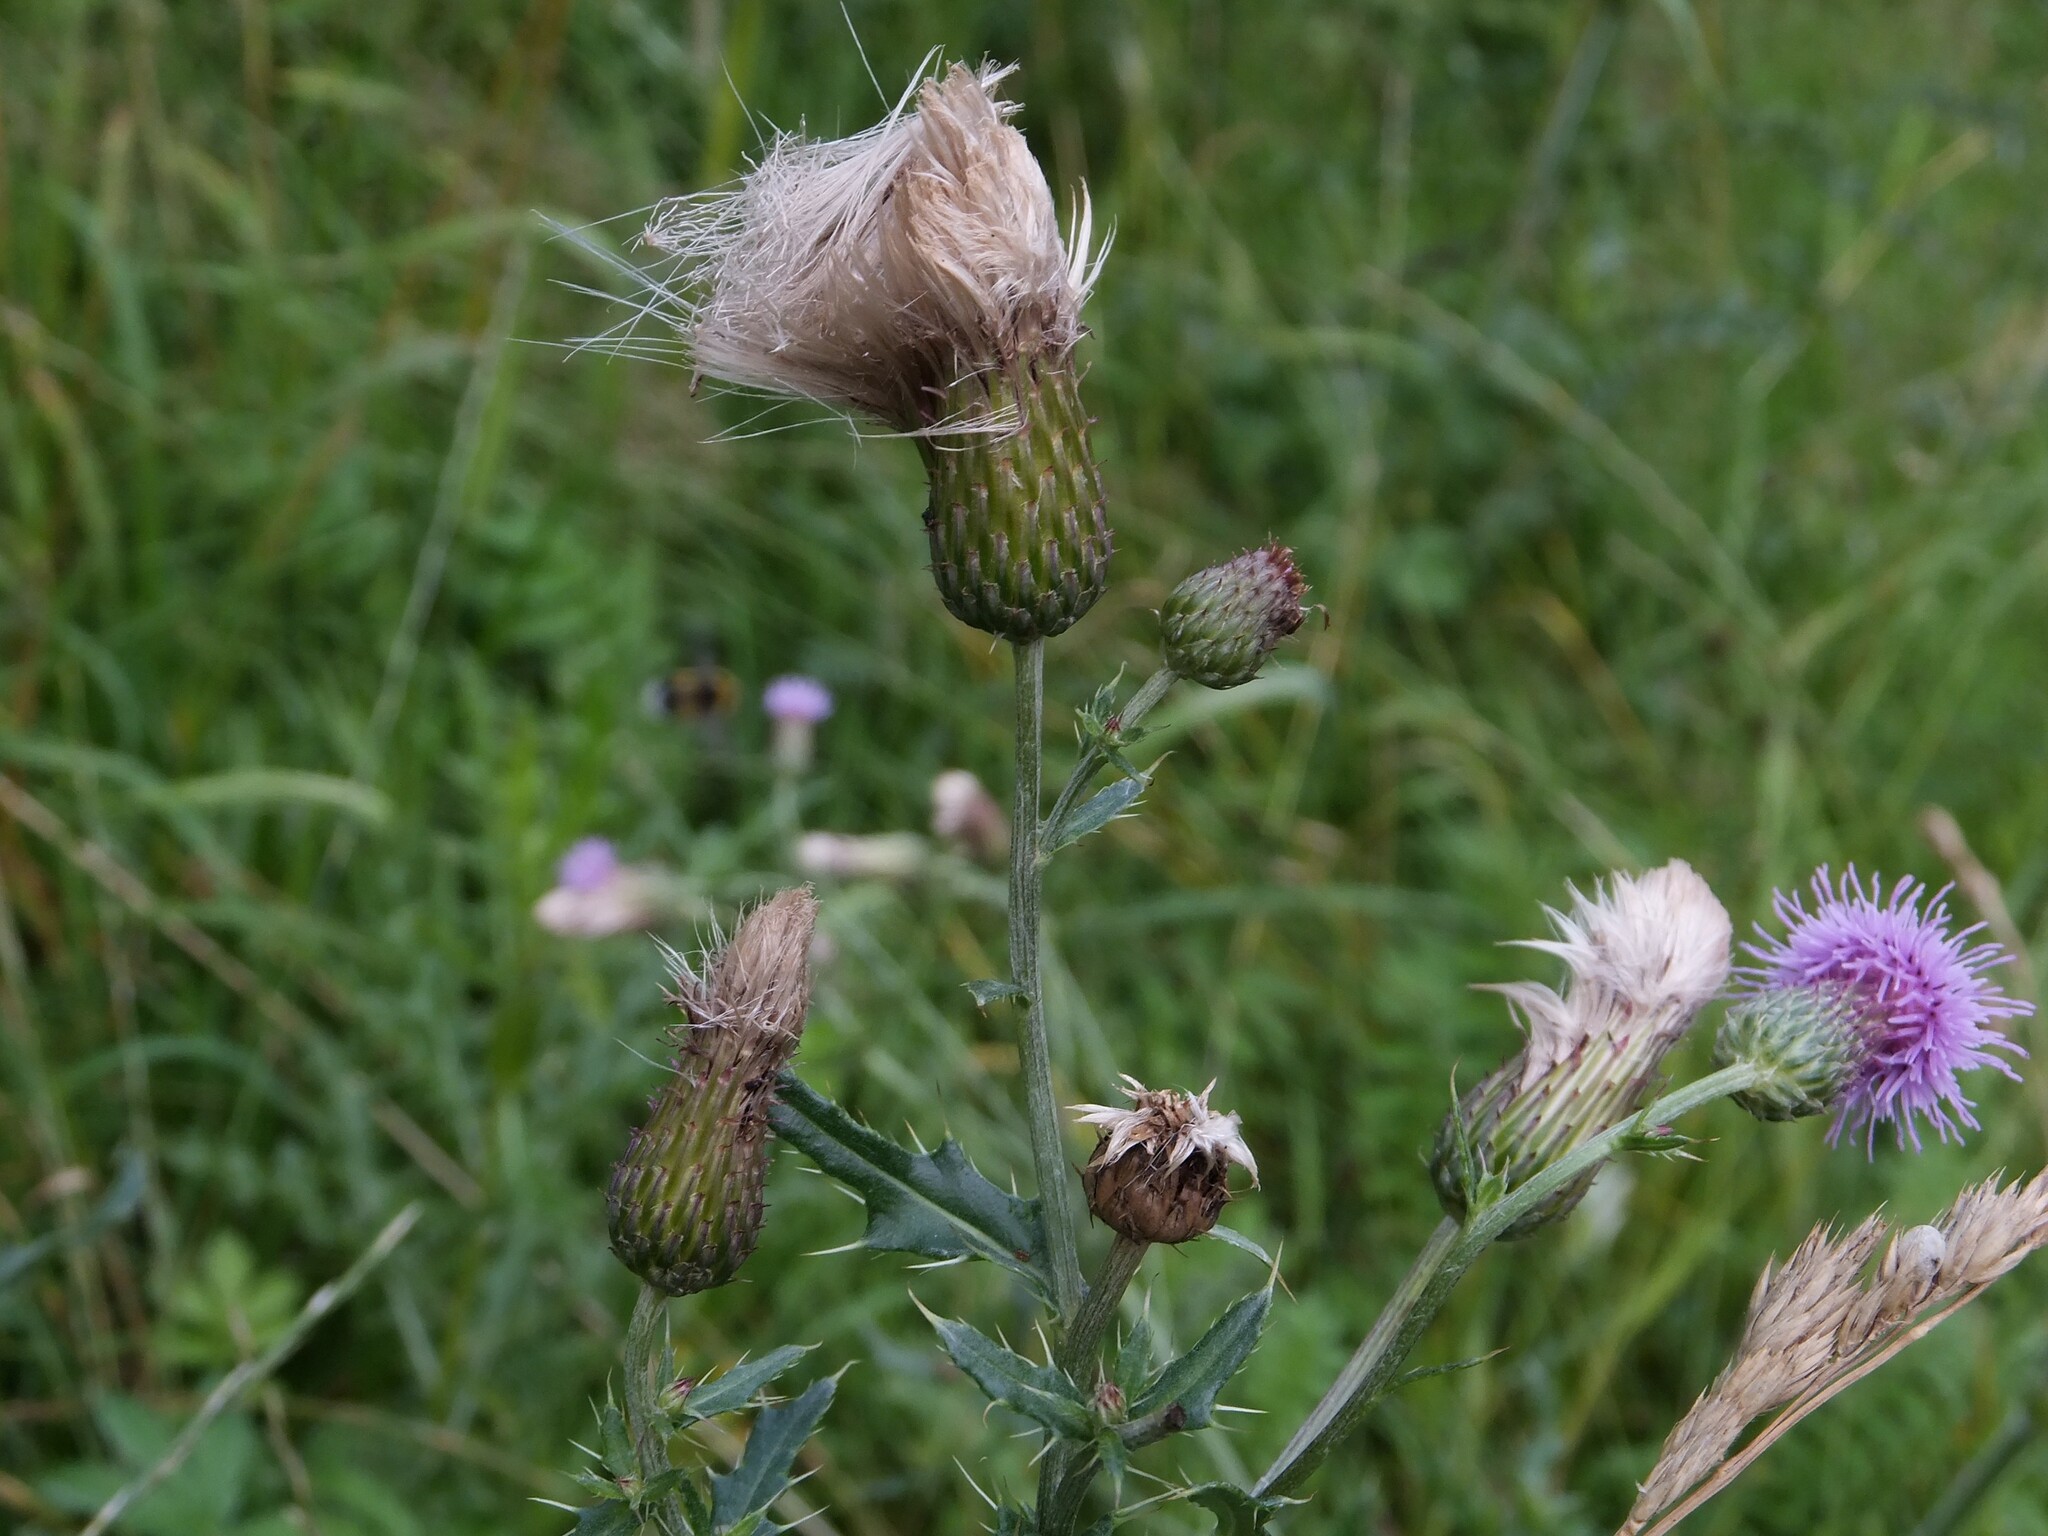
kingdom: Plantae
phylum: Tracheophyta
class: Magnoliopsida
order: Asterales
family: Asteraceae
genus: Cirsium
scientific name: Cirsium arvense
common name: Creeping thistle
